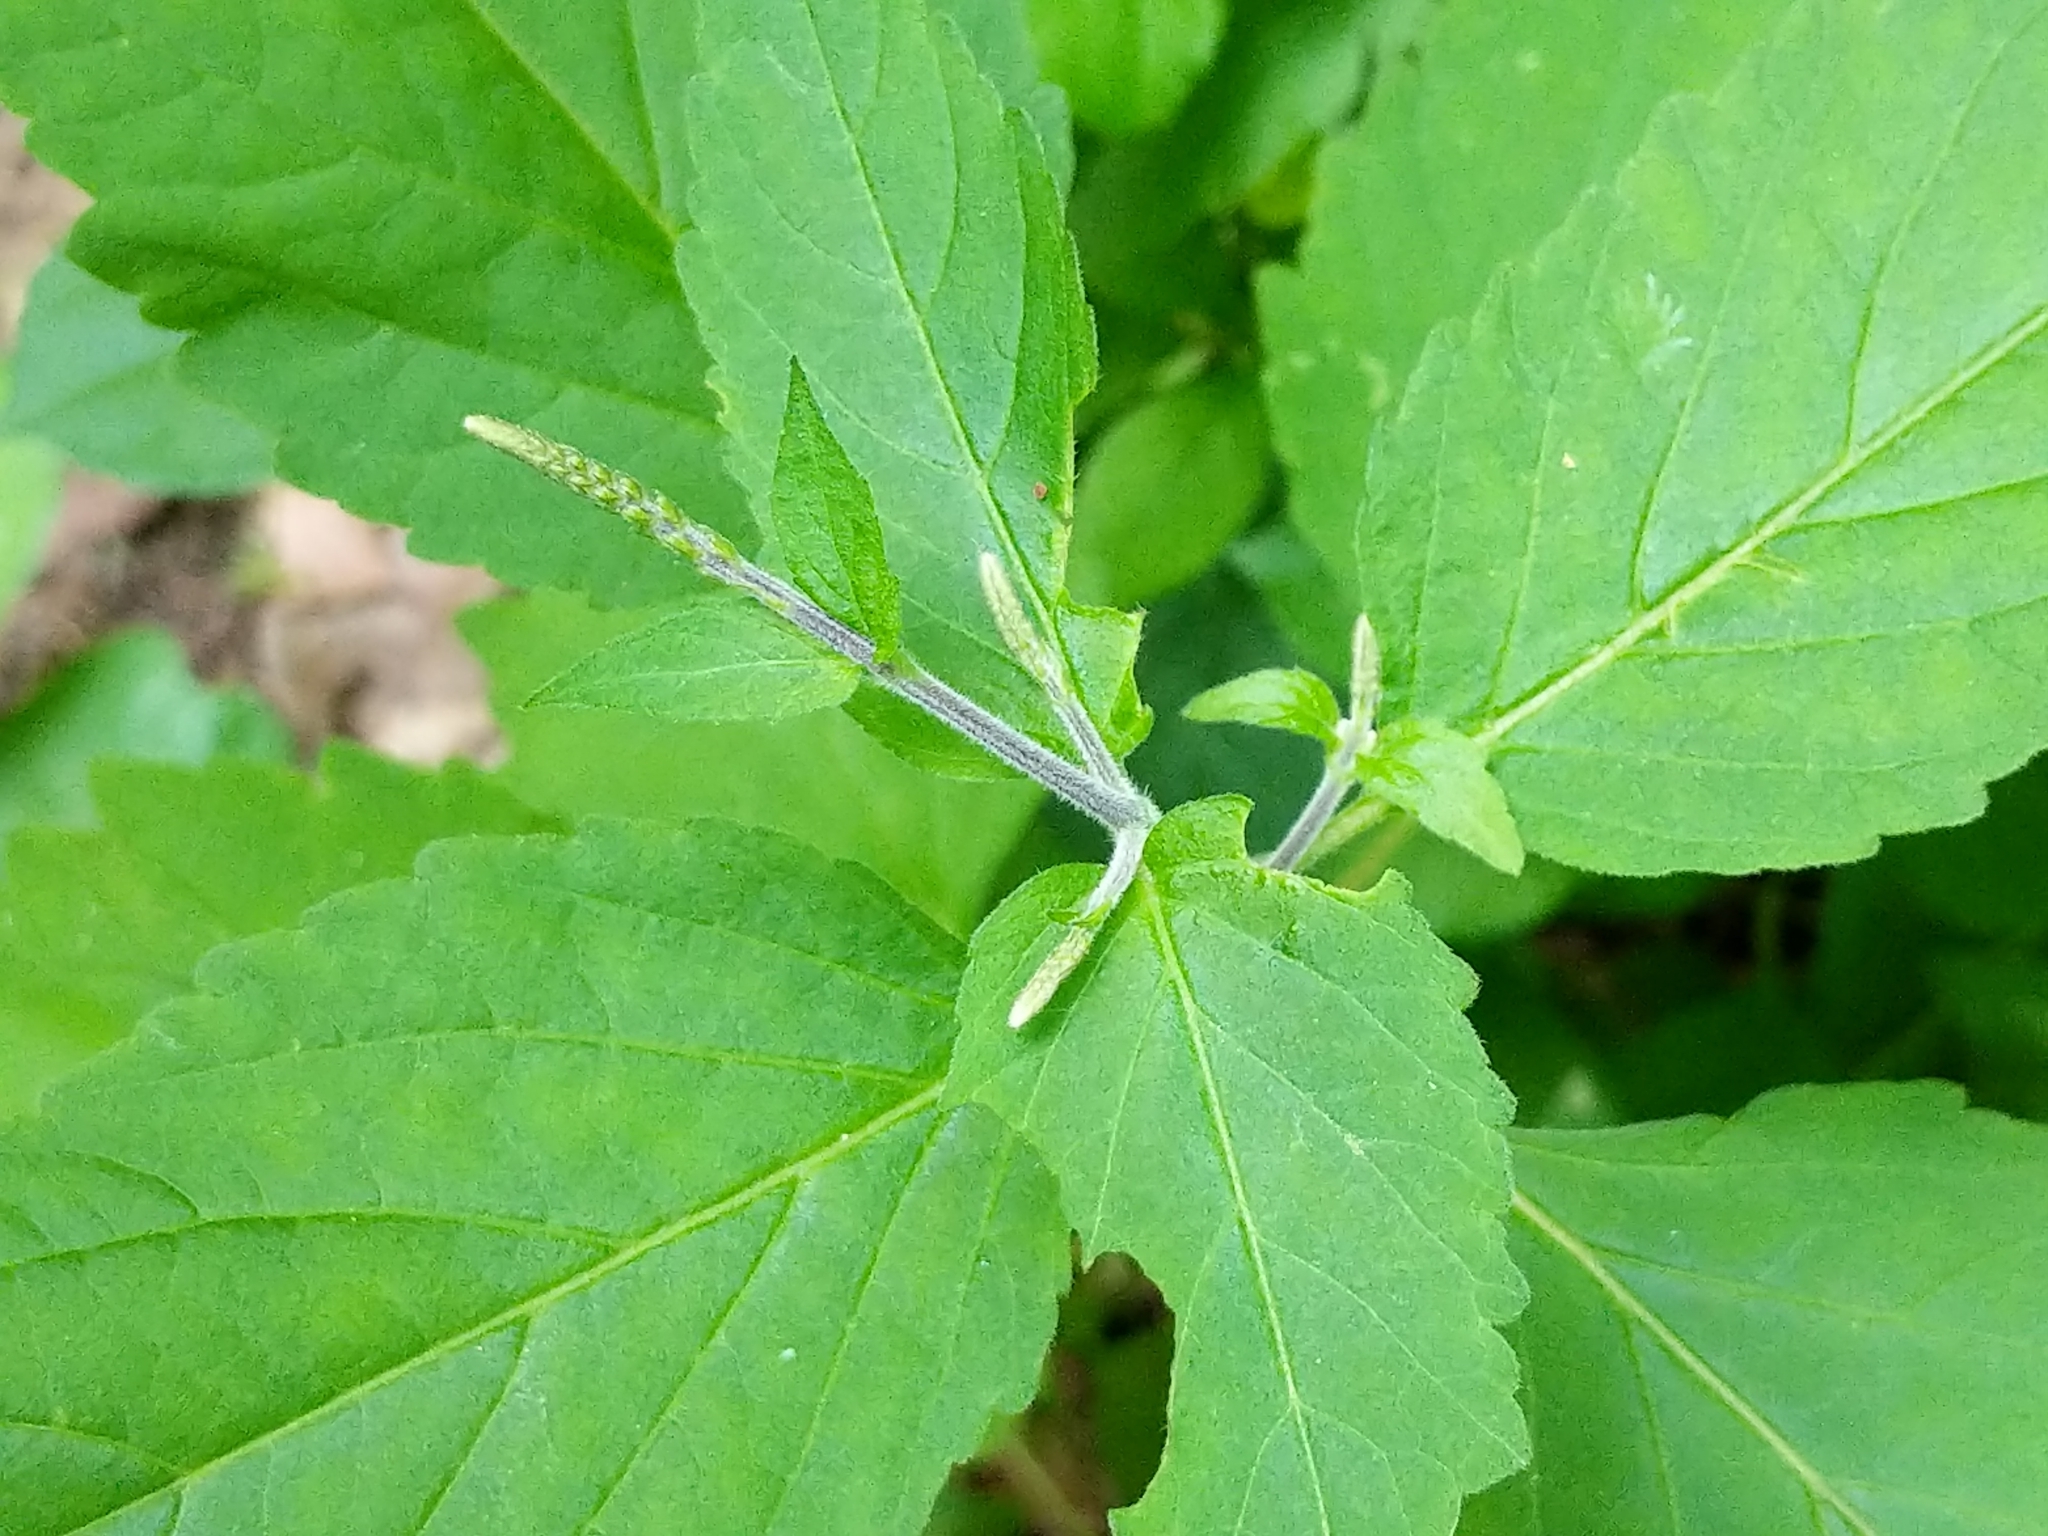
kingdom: Plantae
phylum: Tracheophyta
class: Magnoliopsida
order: Lamiales
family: Phrymaceae
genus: Phryma
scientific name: Phryma leptostachya
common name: American lopseed
